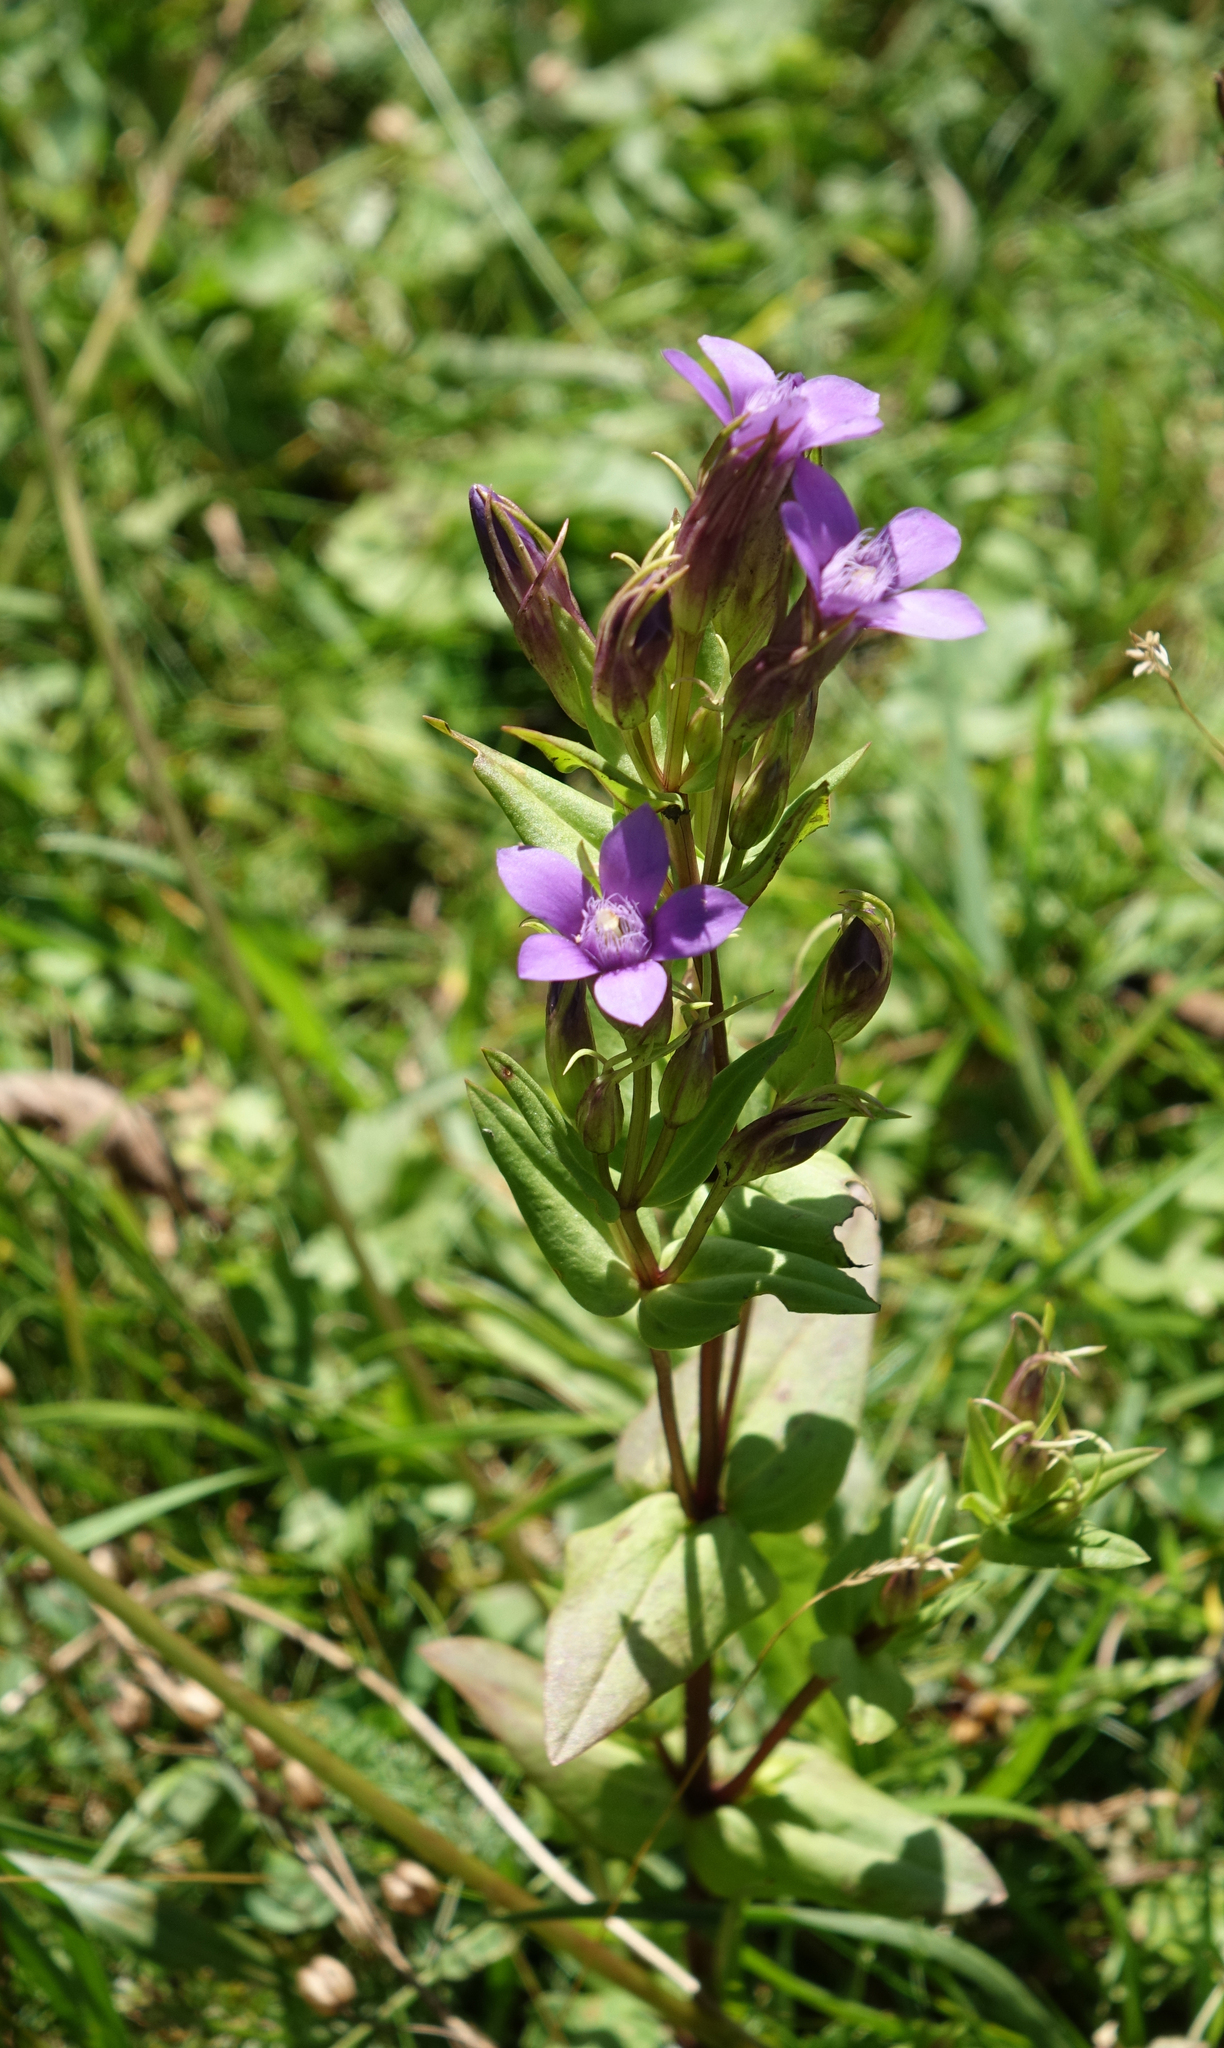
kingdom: Plantae
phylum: Tracheophyta
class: Magnoliopsida
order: Gentianales
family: Gentianaceae
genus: Gentianella
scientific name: Gentianella caucasea
